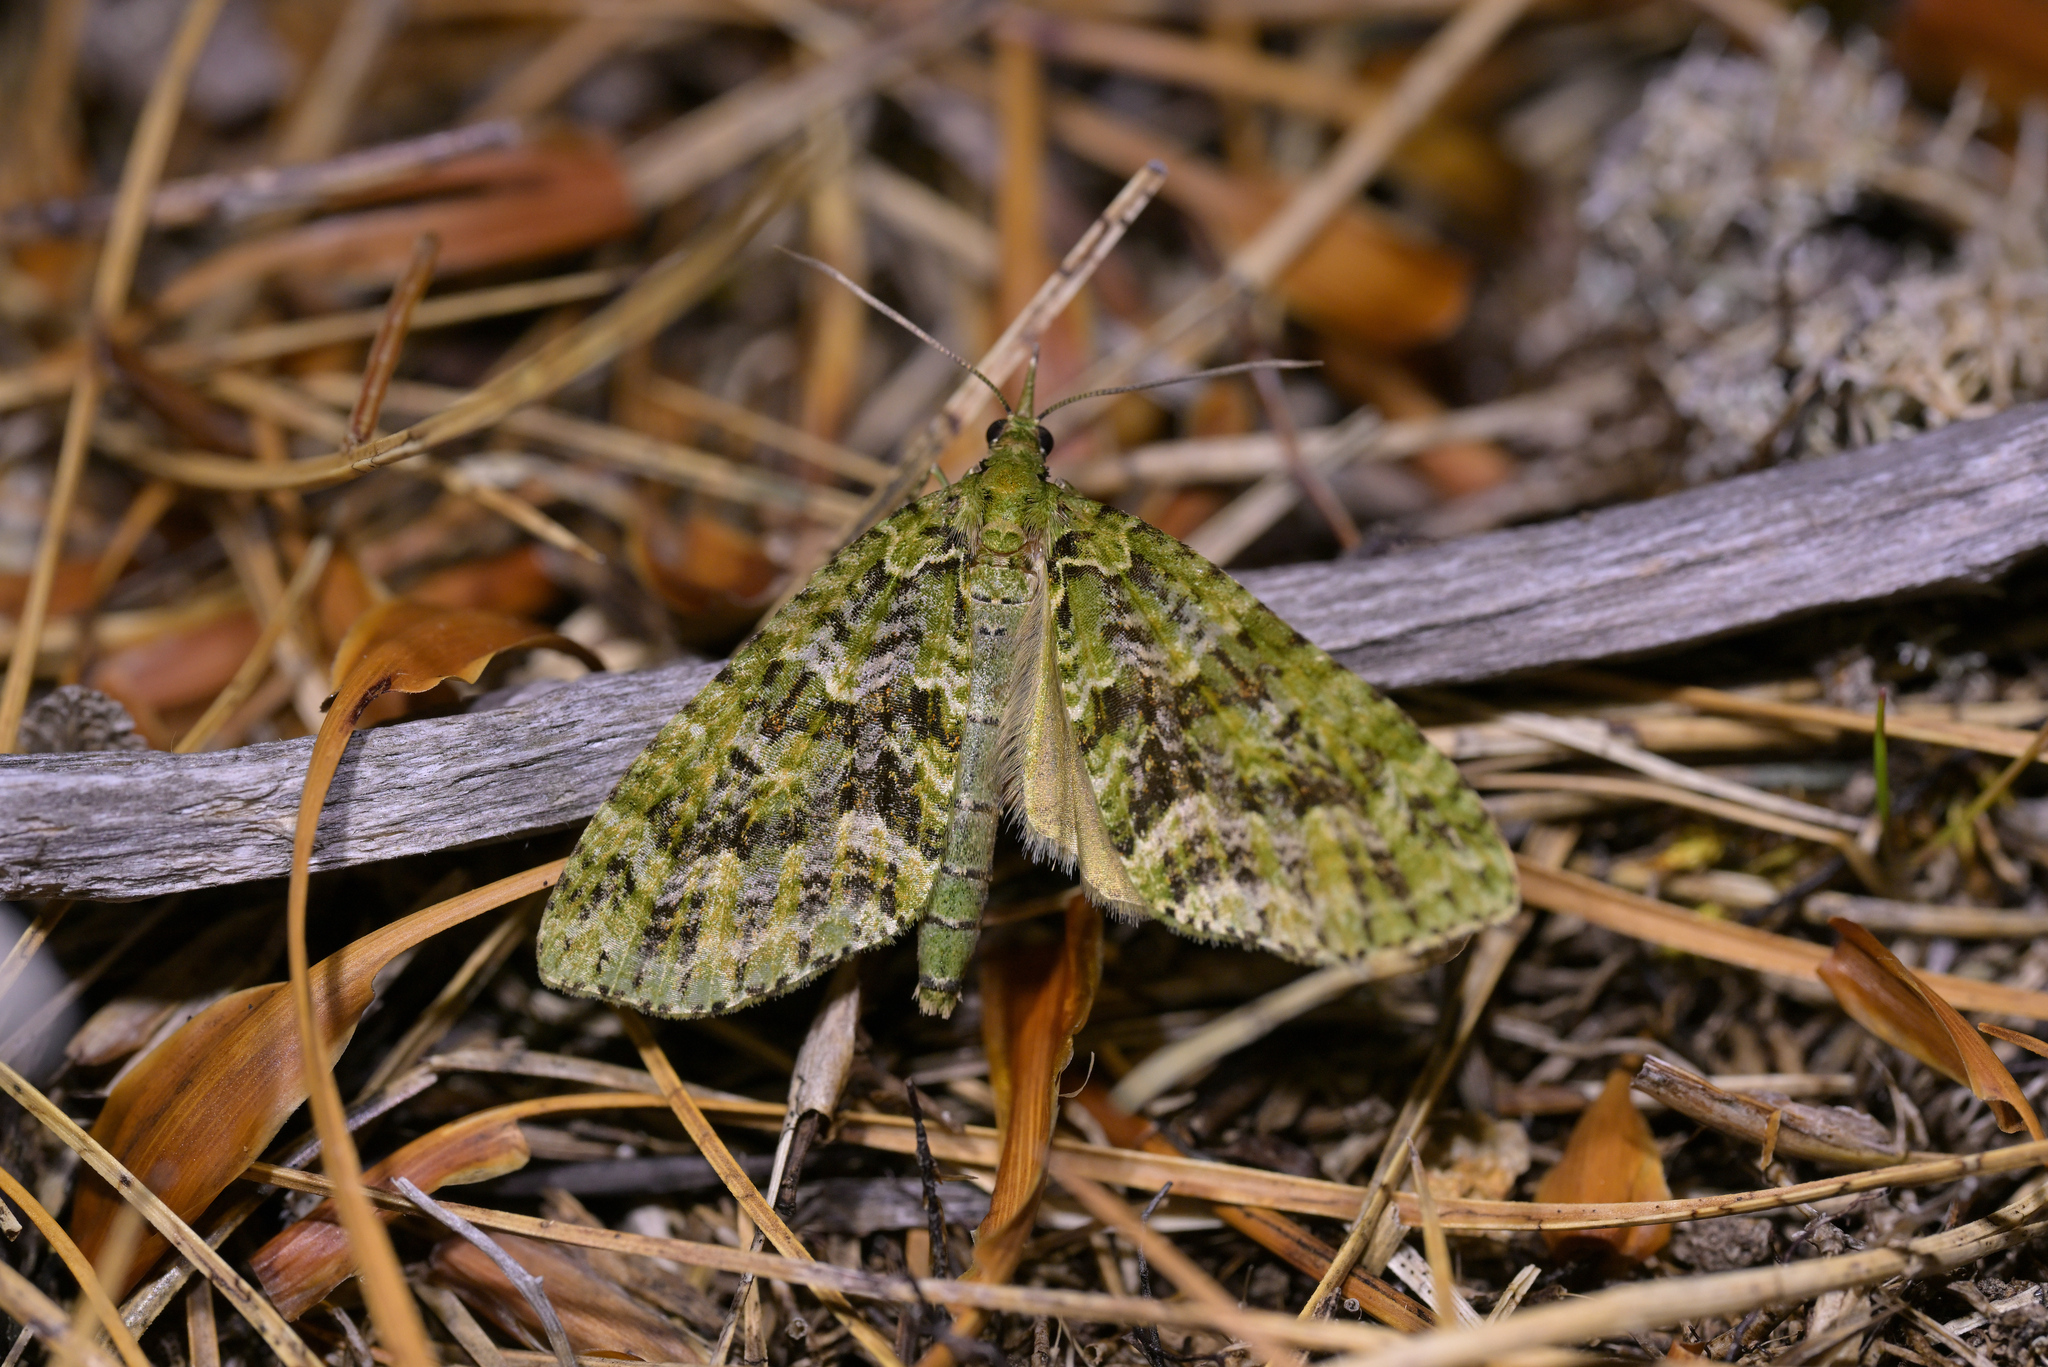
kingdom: Animalia
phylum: Arthropoda
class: Insecta
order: Lepidoptera
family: Geometridae
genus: Tatosoma
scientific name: Tatosoma tipulata
